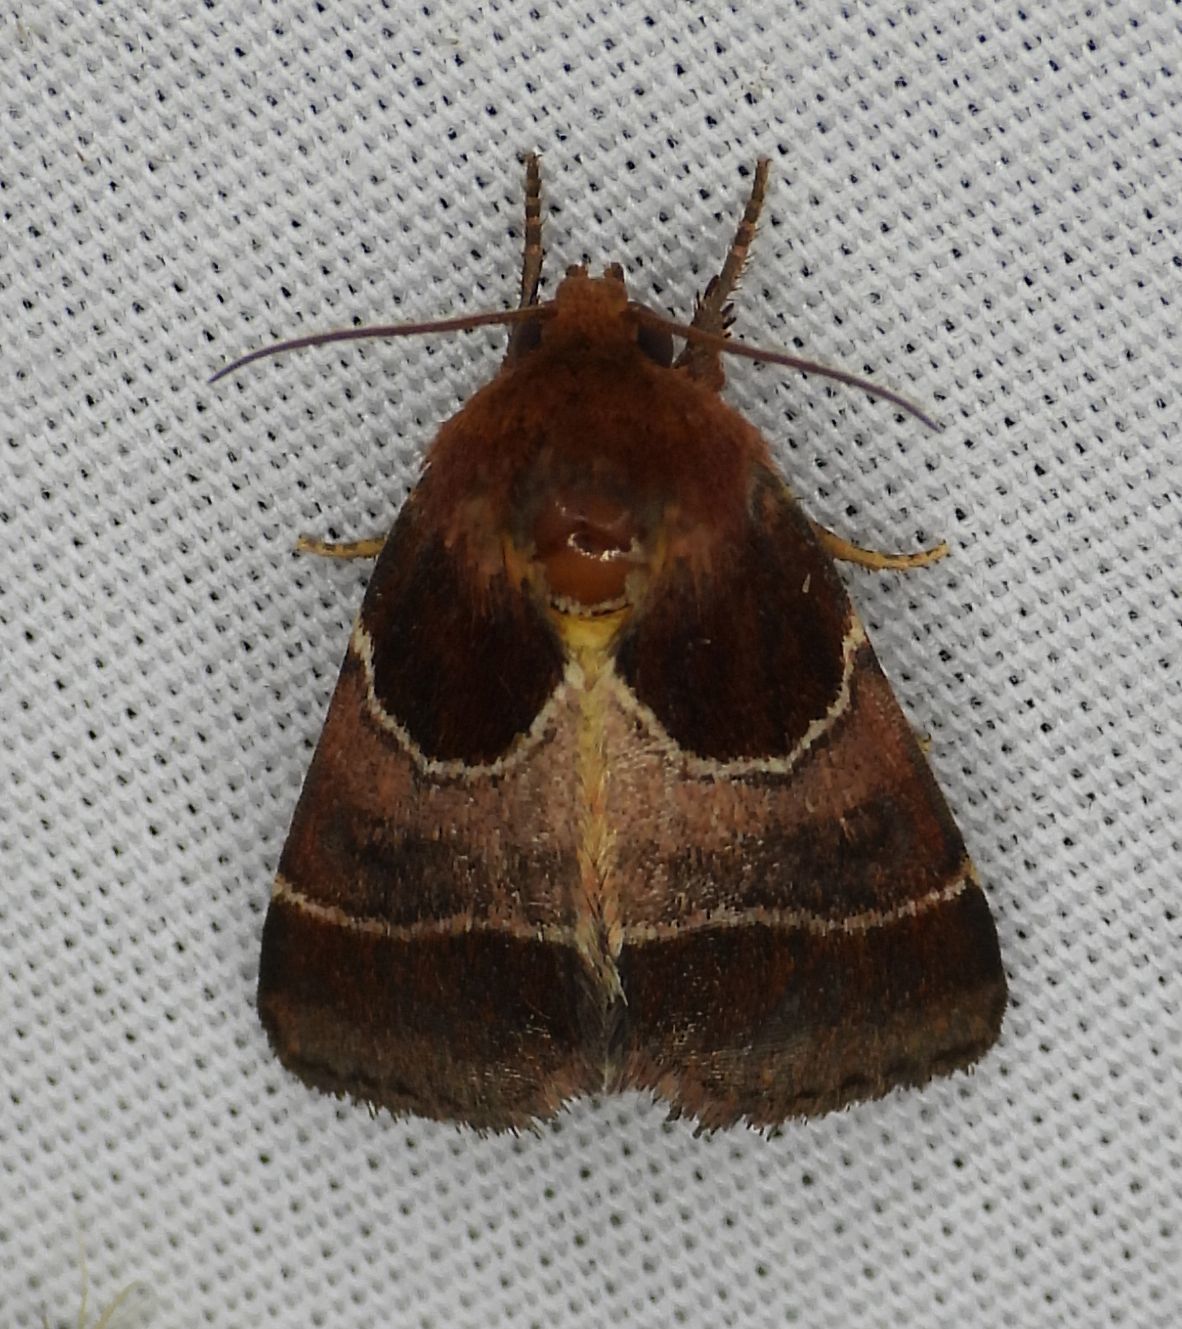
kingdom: Animalia
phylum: Arthropoda
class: Insecta
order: Lepidoptera
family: Noctuidae
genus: Schinia
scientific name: Schinia arcigera
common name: Arcigera flower moth
